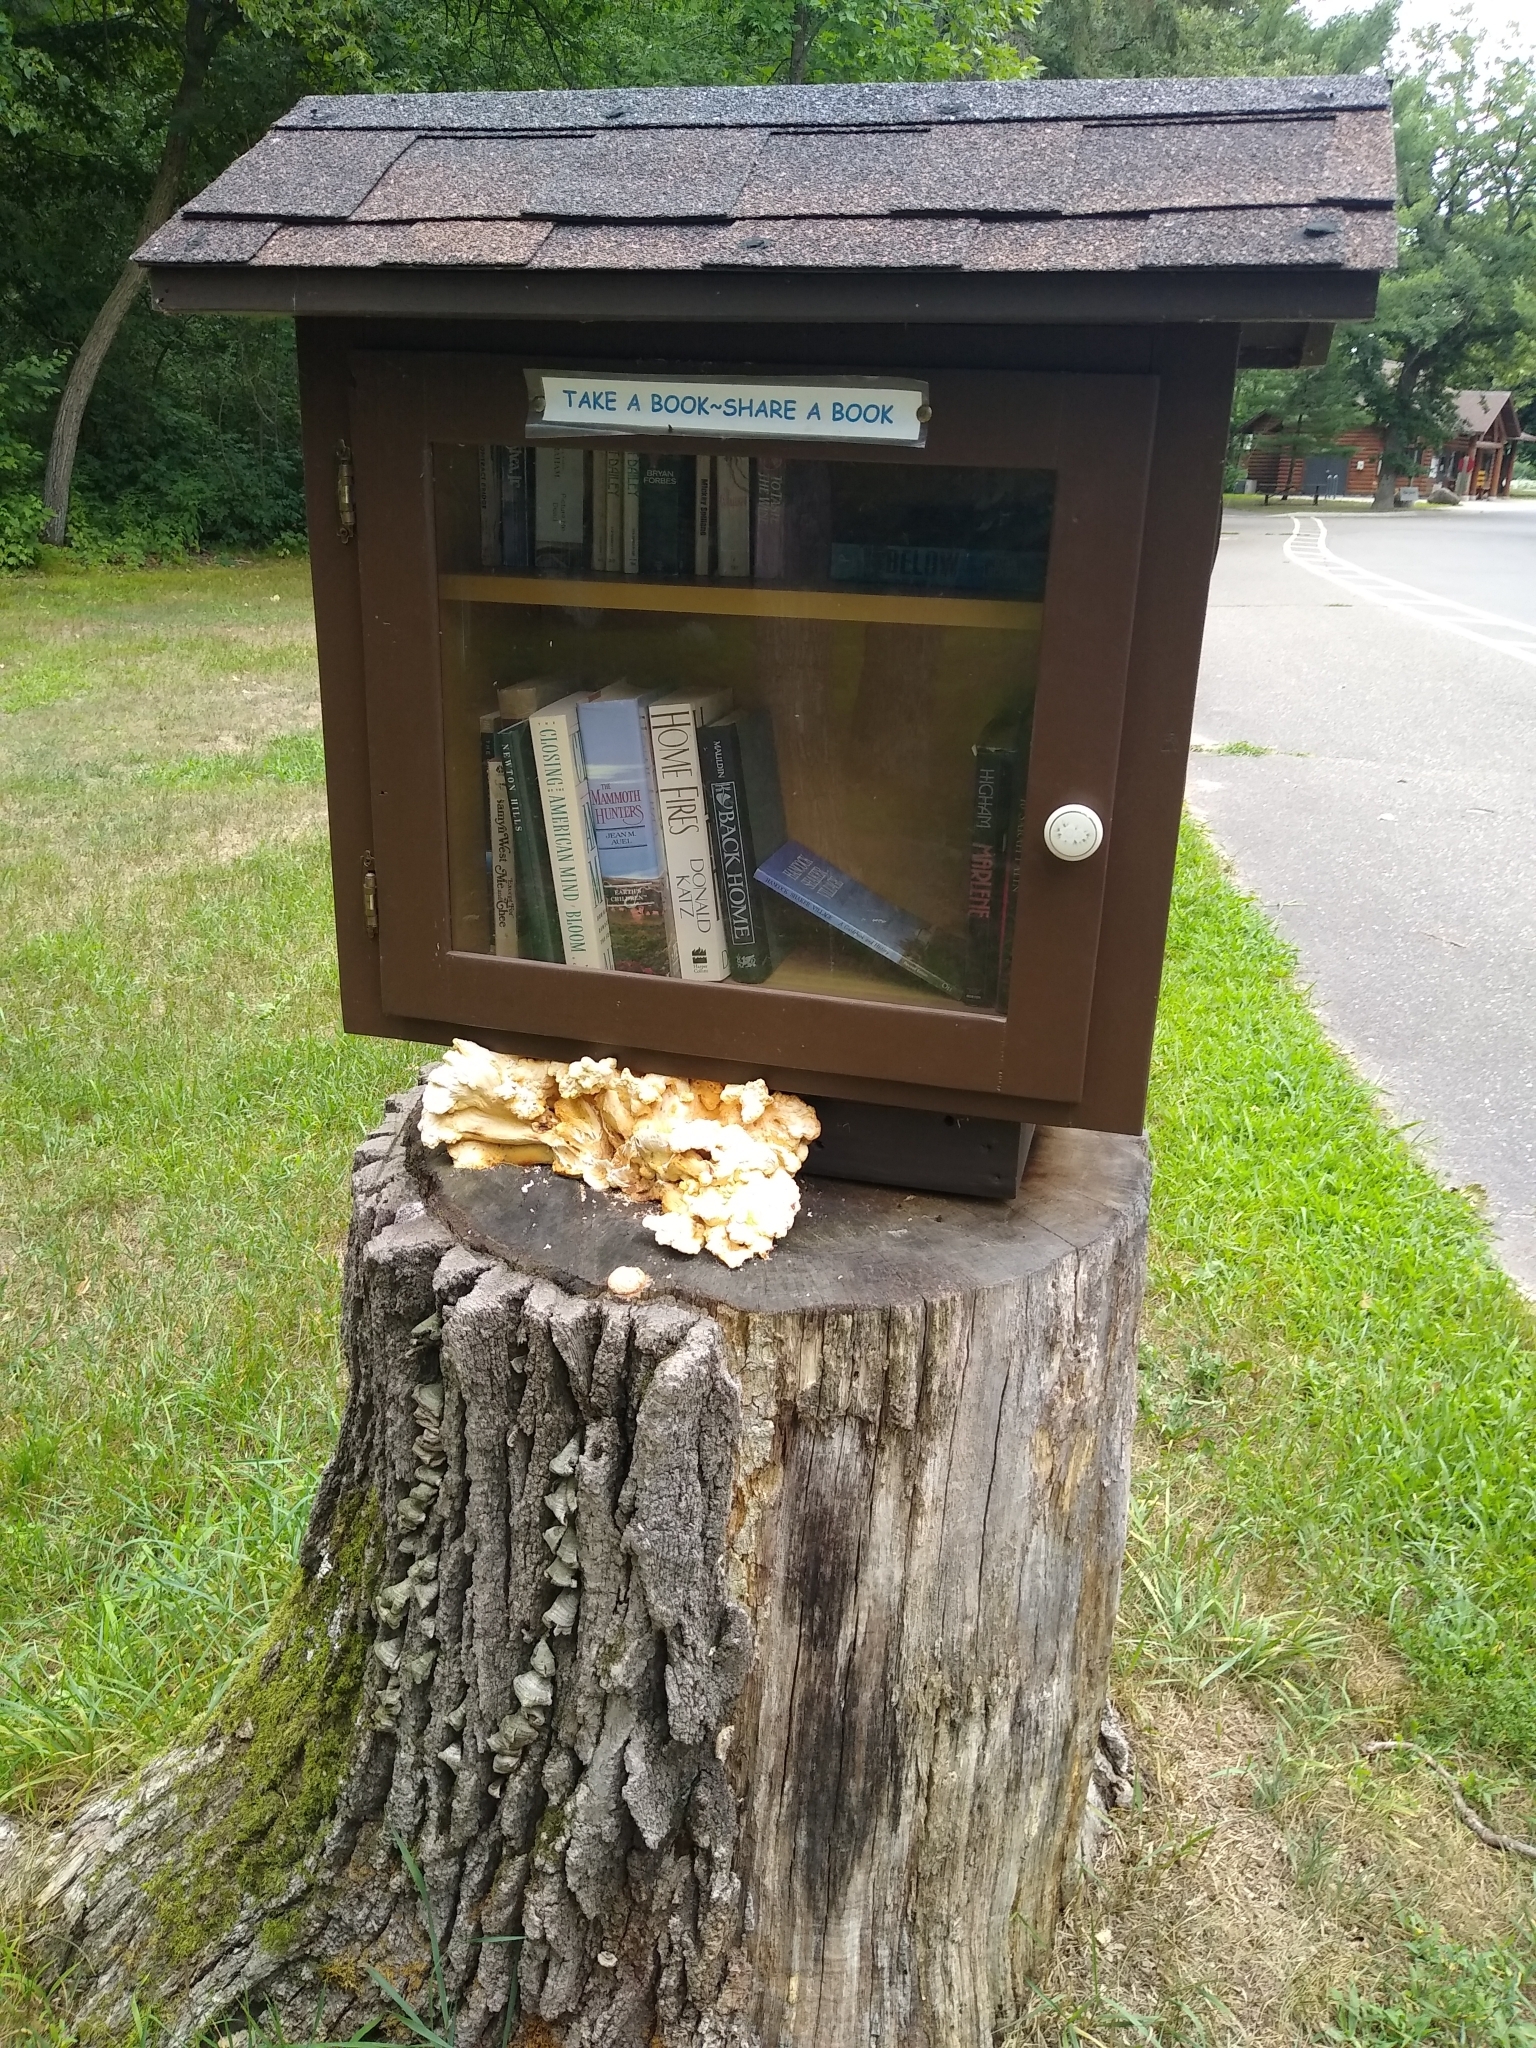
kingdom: Fungi
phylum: Basidiomycota
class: Agaricomycetes
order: Polyporales
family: Laetiporaceae
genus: Laetiporus
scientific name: Laetiporus sulphureus
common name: Chicken of the woods
